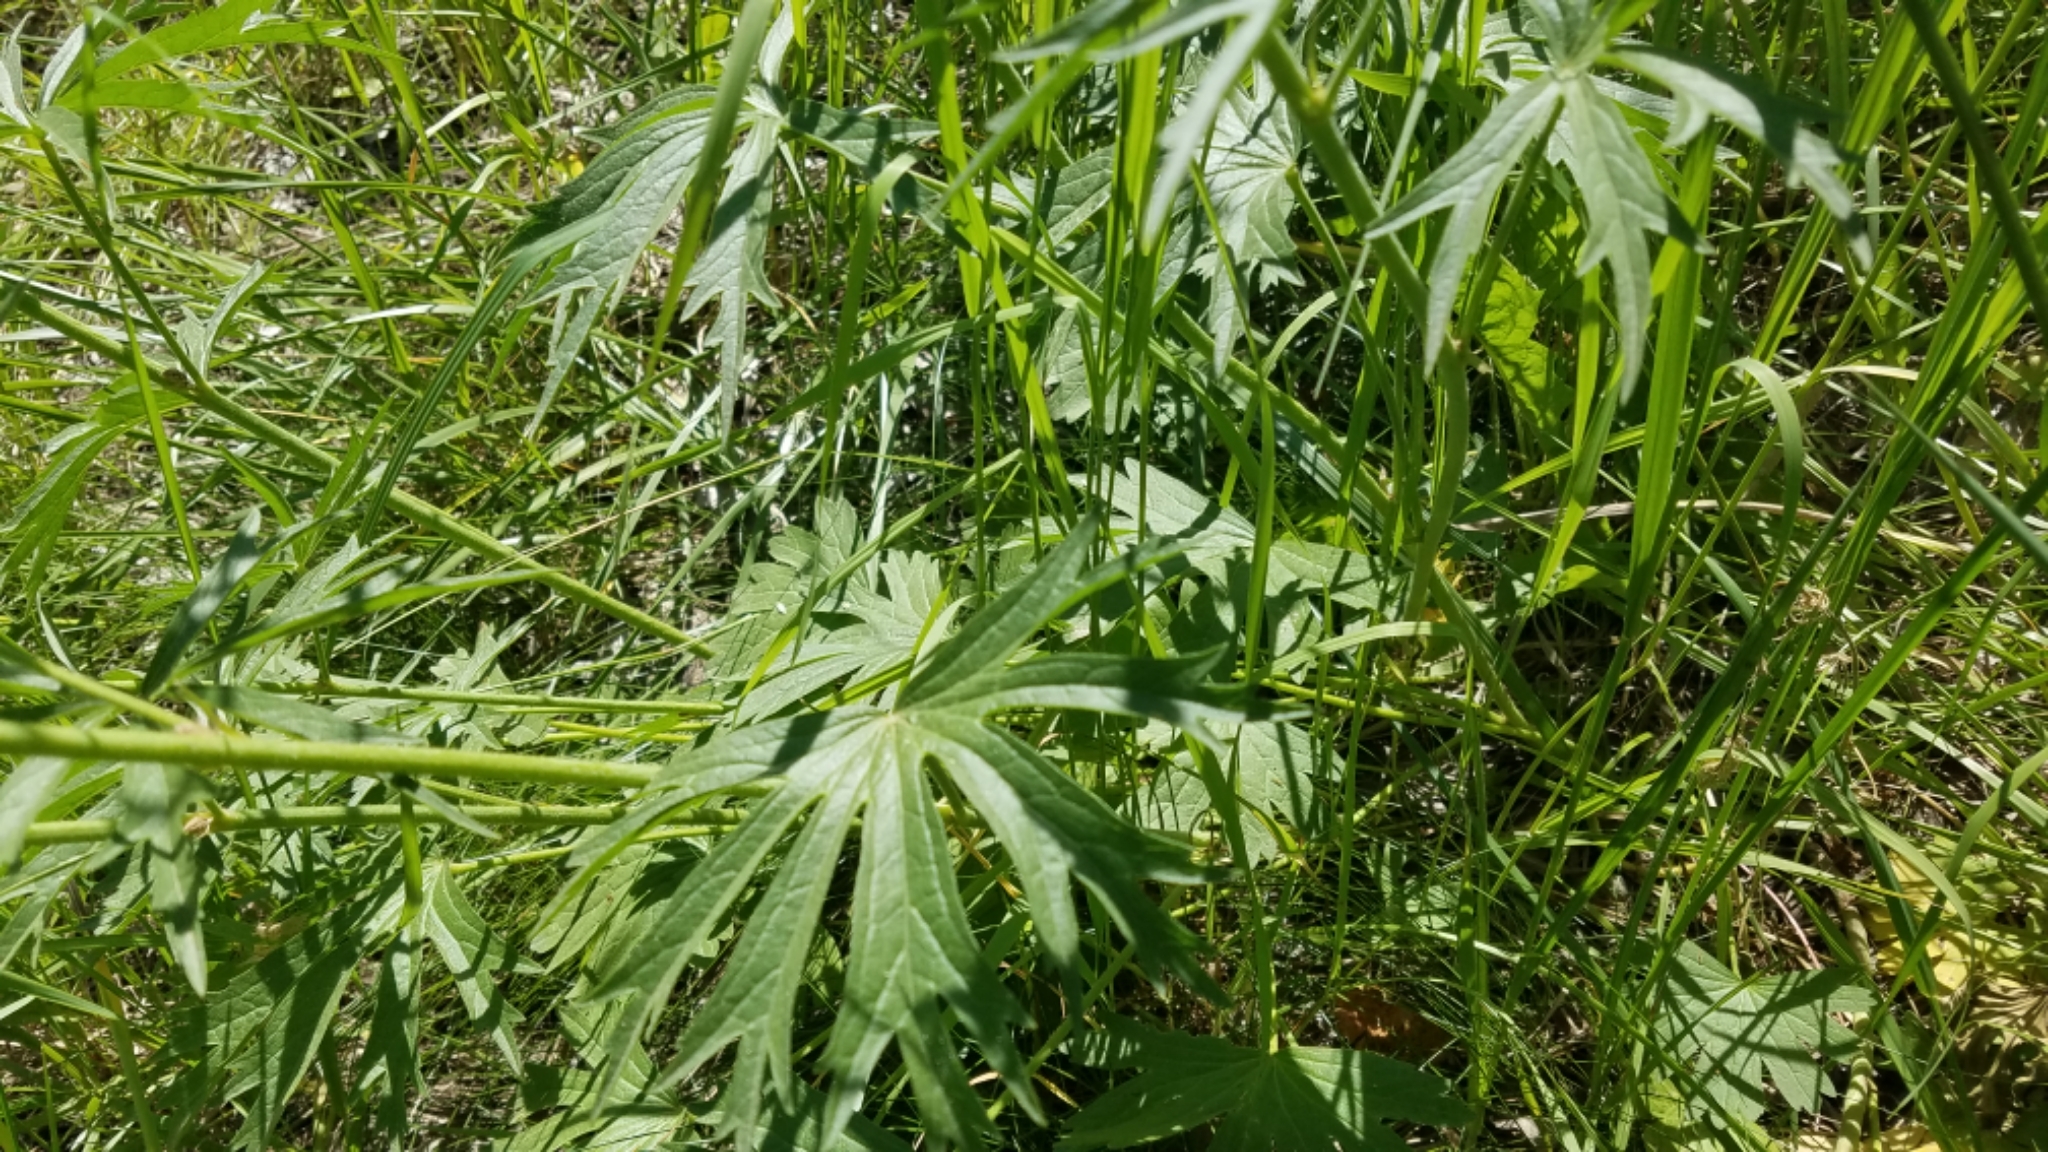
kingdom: Plantae
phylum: Tracheophyta
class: Magnoliopsida
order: Malvales
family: Malvaceae
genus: Sidalcea
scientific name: Sidalcea oregana
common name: Oregon checker-mallow
